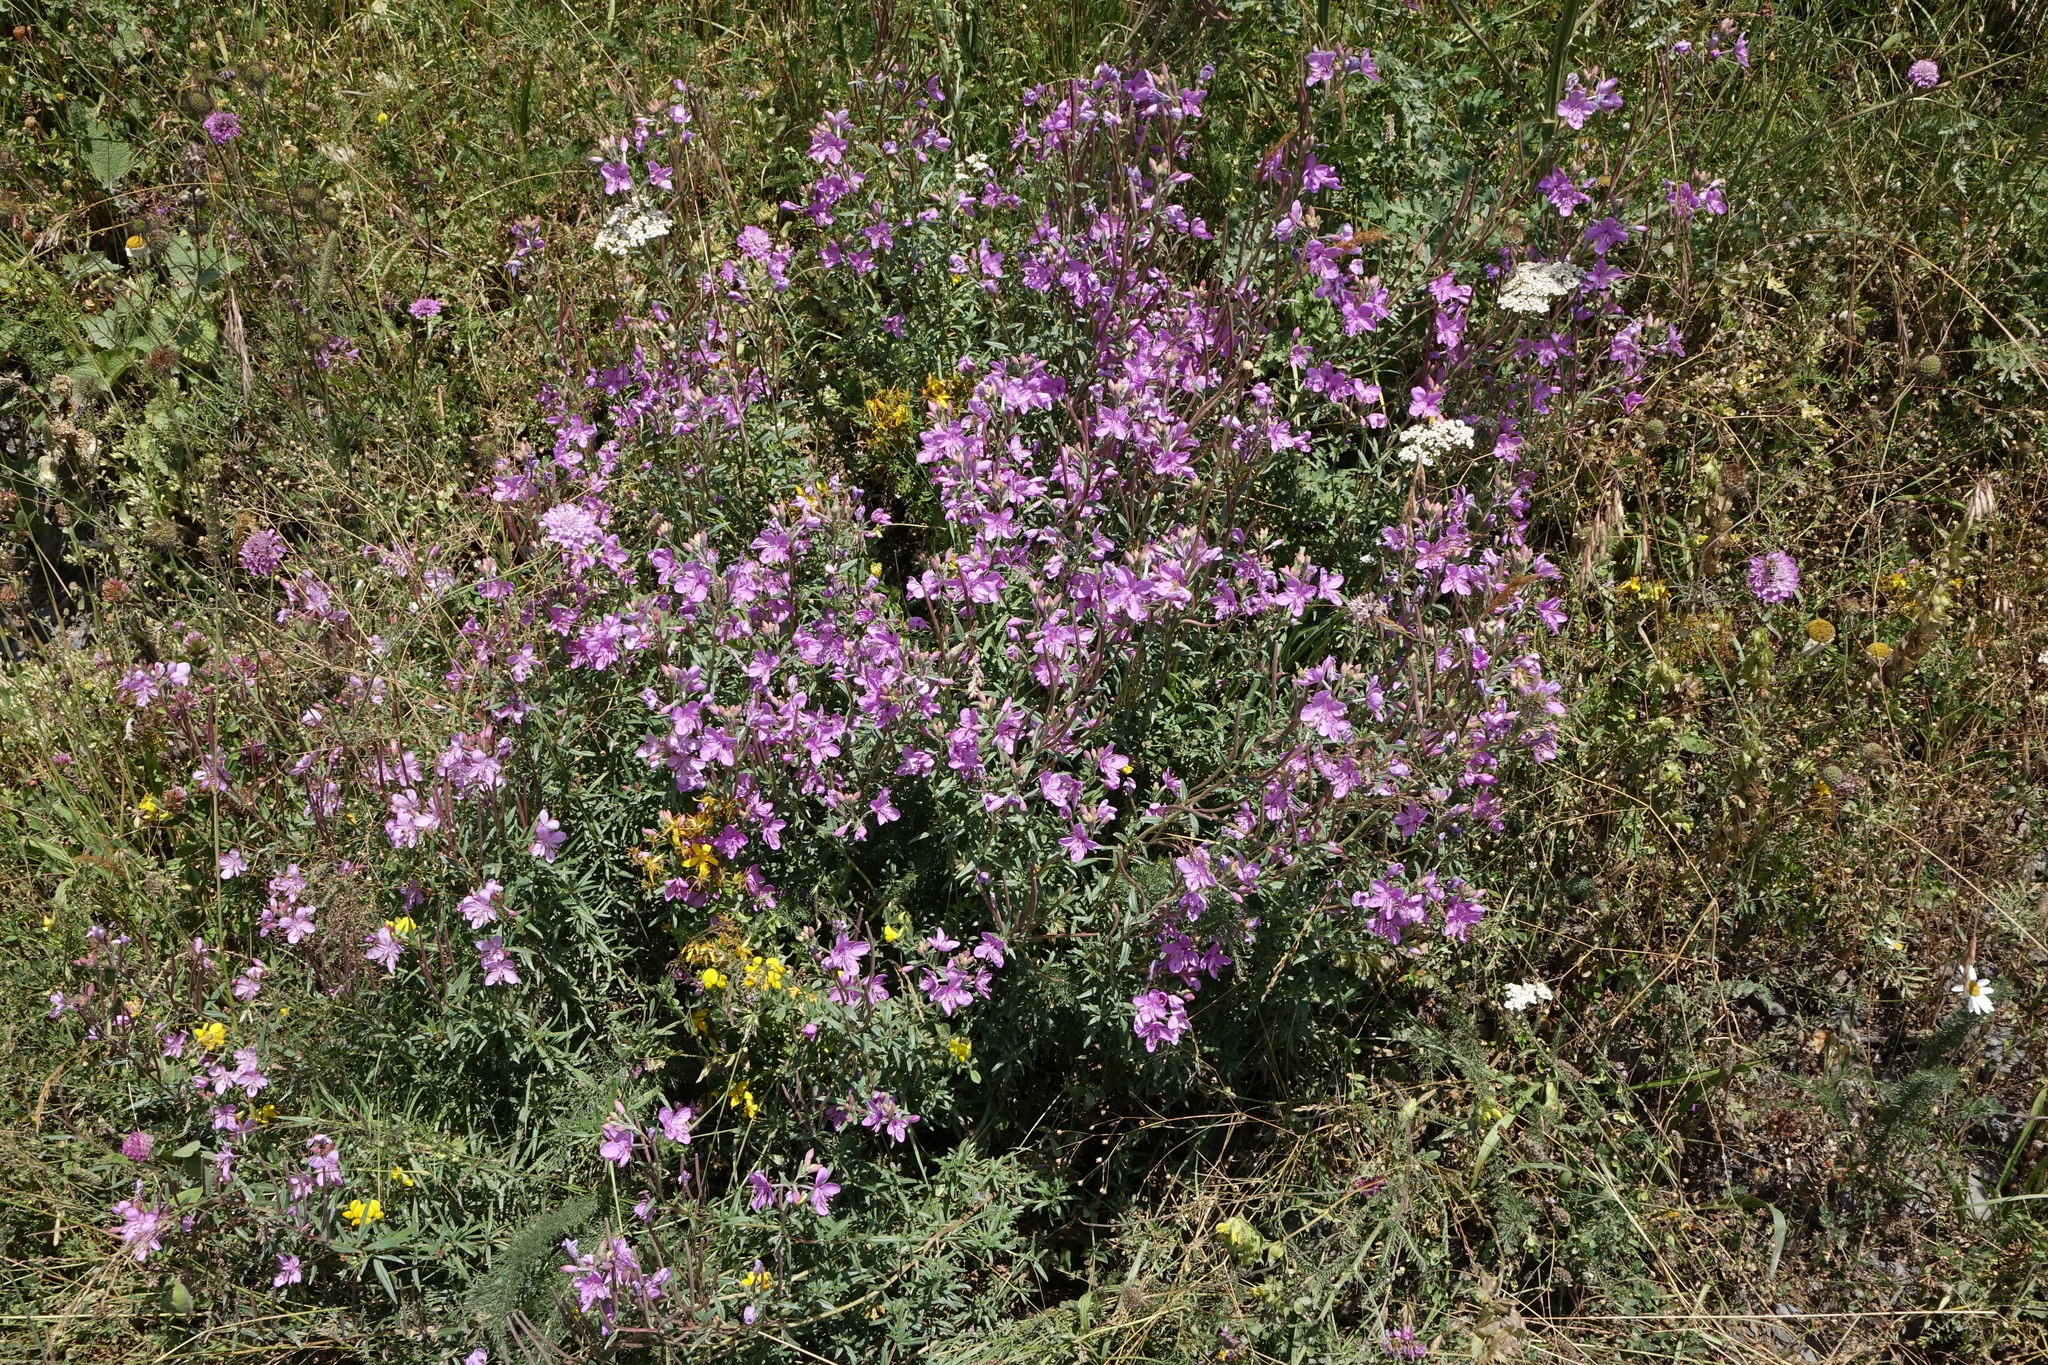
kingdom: Plantae
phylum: Tracheophyta
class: Magnoliopsida
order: Myrtales
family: Onagraceae
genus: Chamaenerion
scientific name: Chamaenerion colchicum
